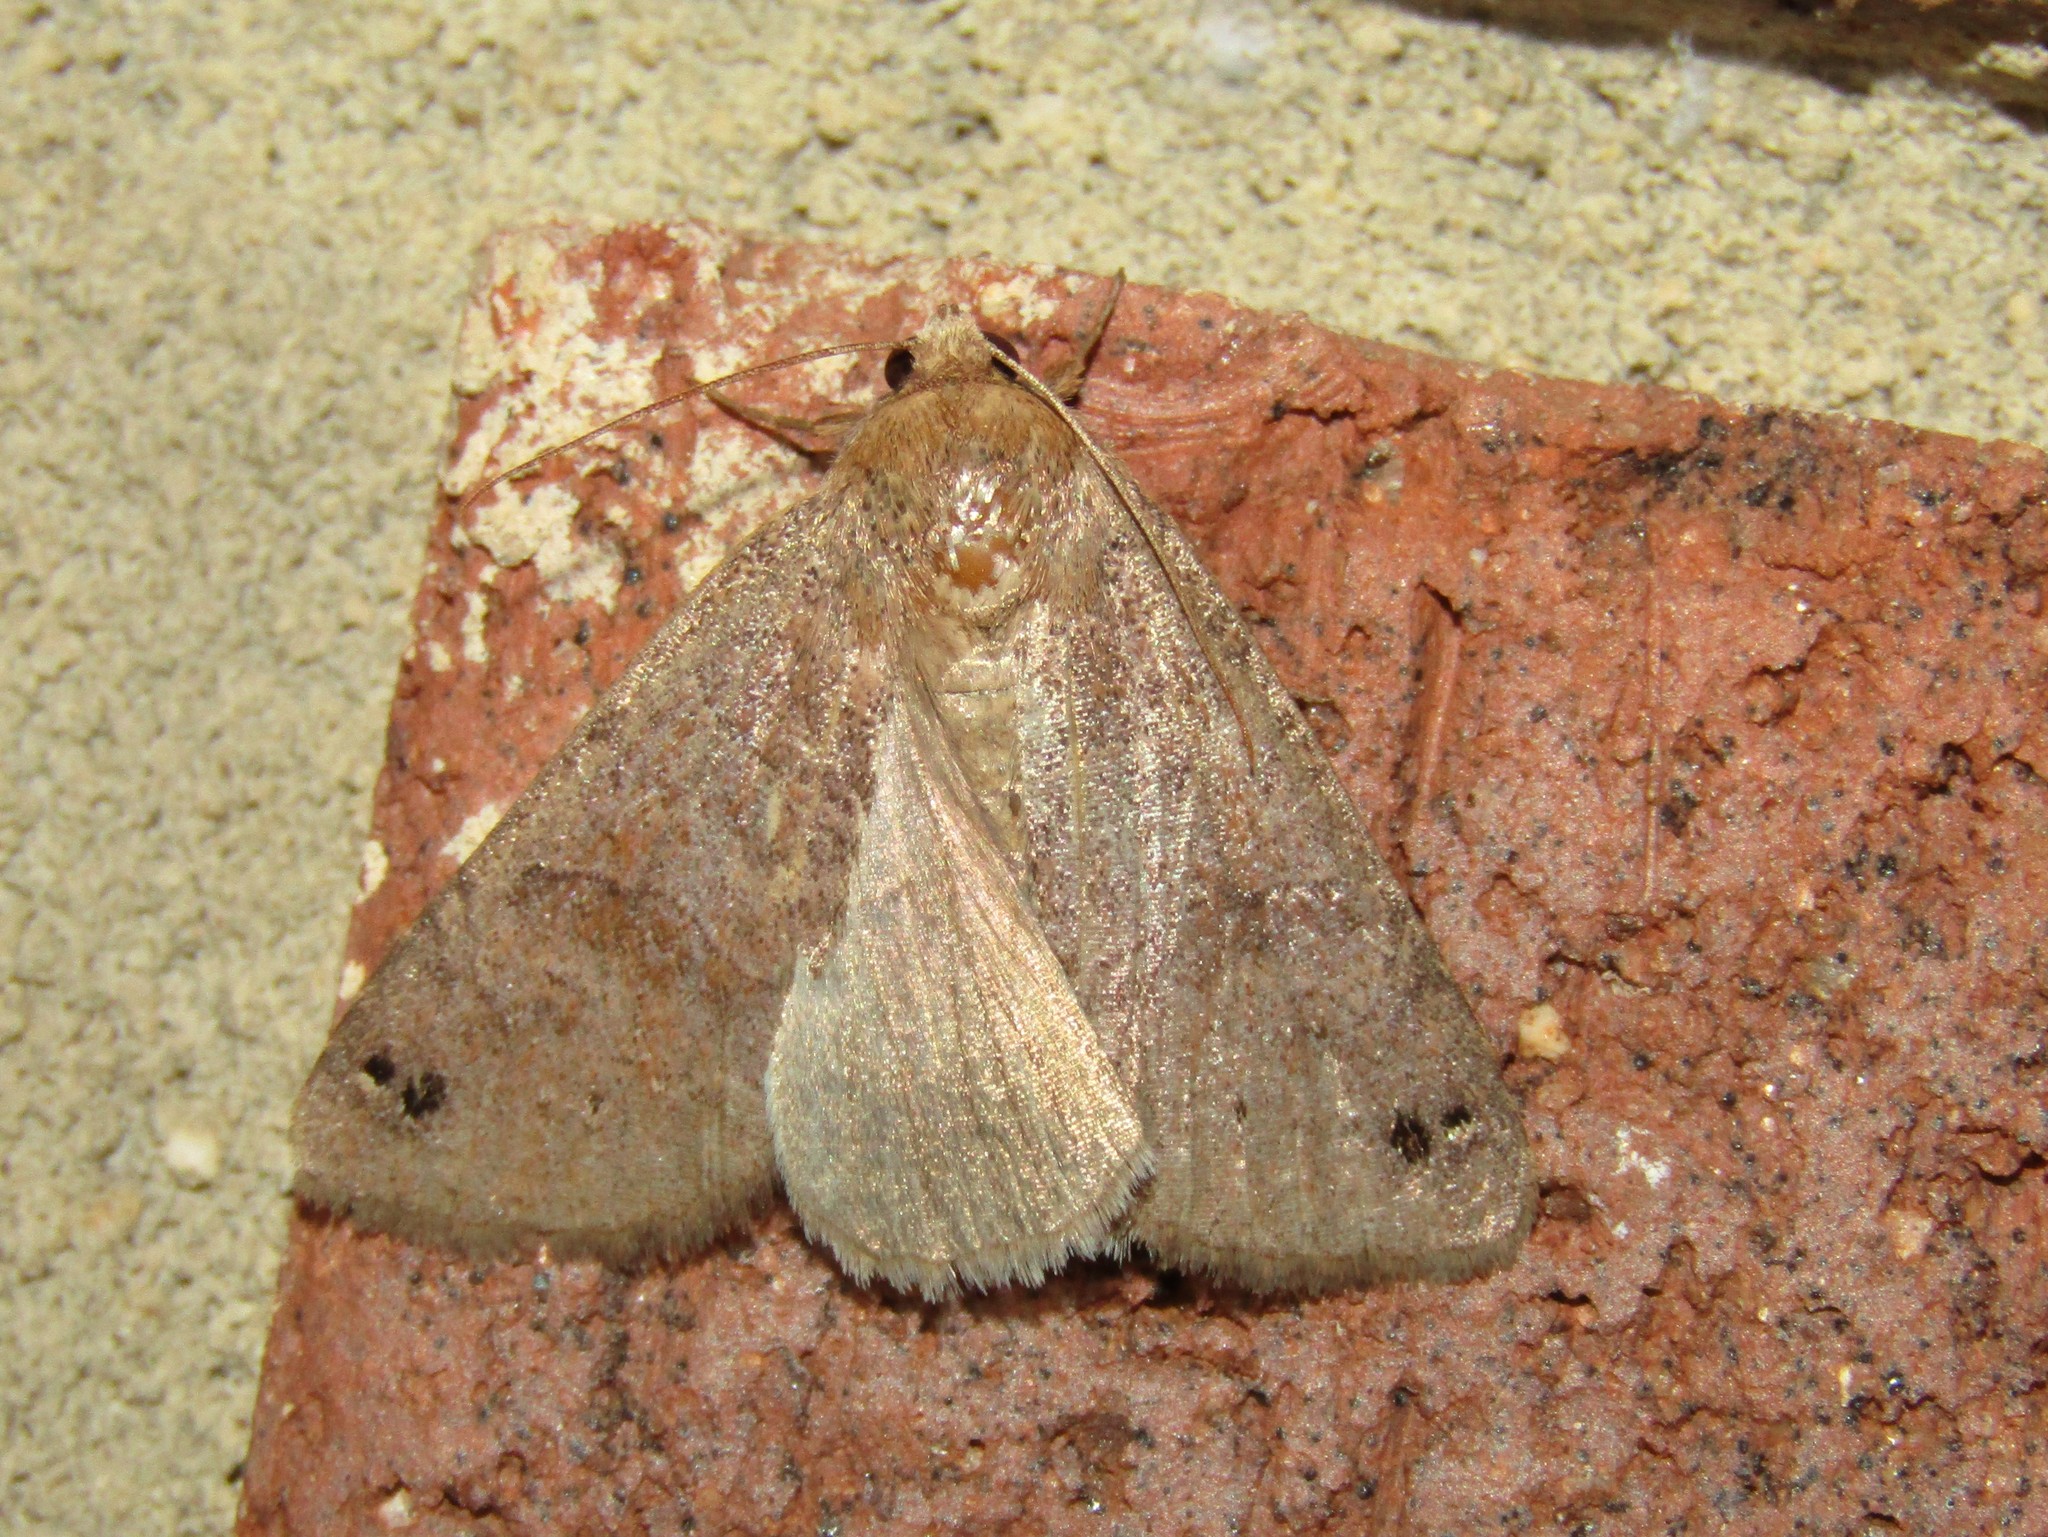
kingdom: Animalia
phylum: Arthropoda
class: Insecta
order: Lepidoptera
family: Erebidae
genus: Cissusa
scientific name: Cissusa spadix
